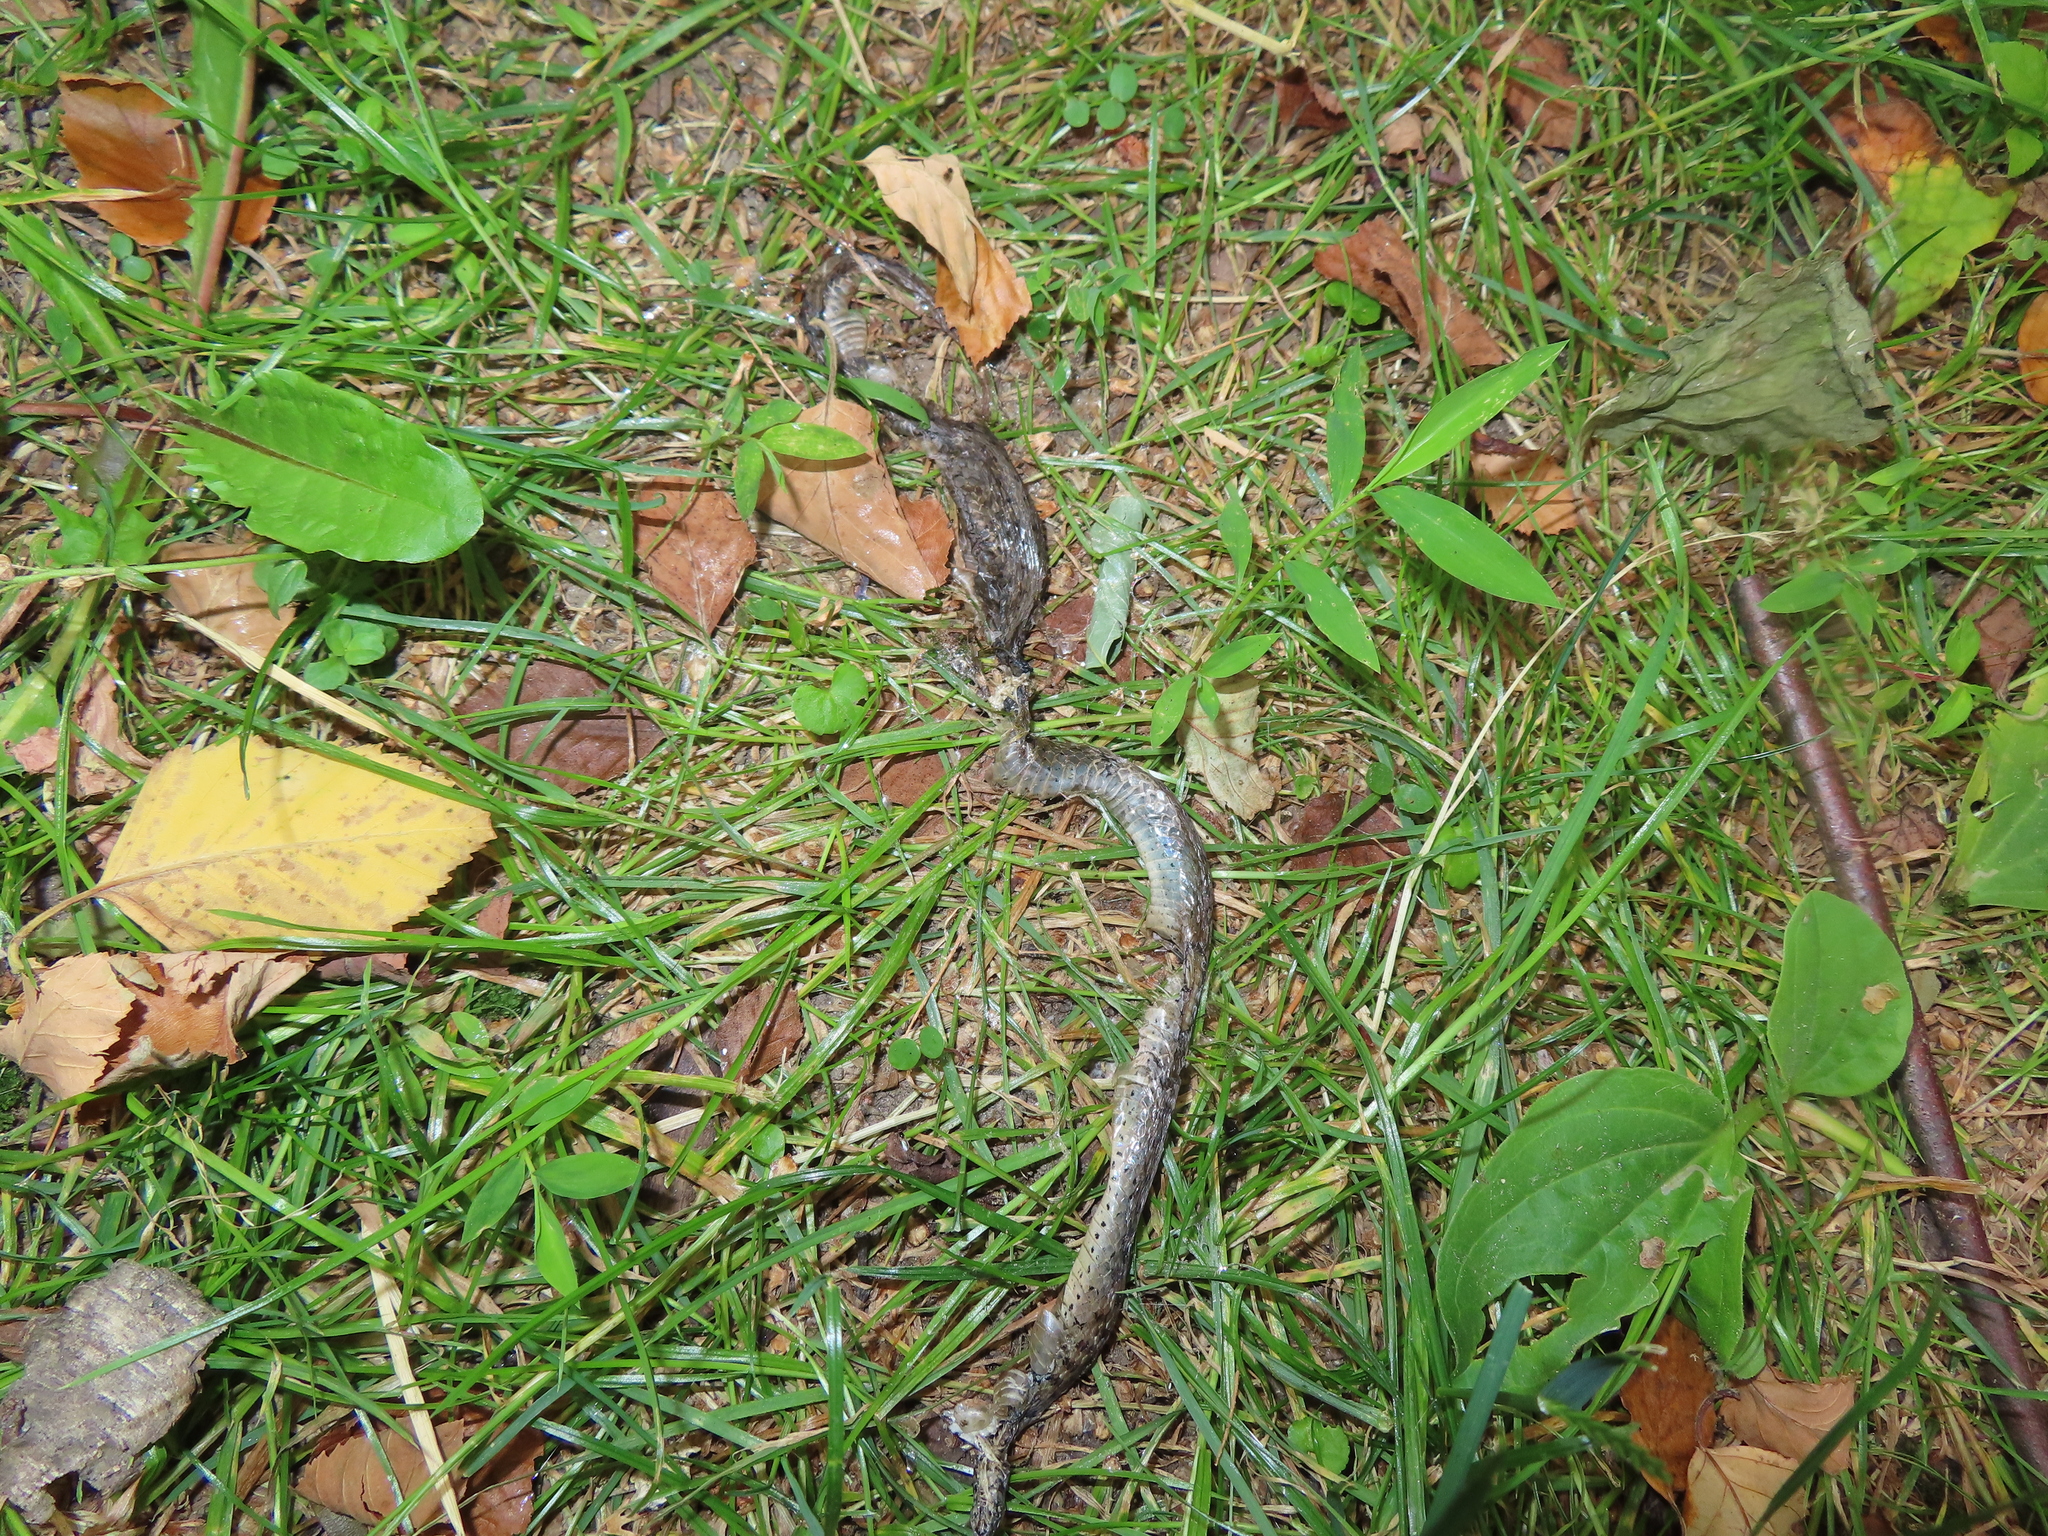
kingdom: Animalia
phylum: Chordata
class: Squamata
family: Colubridae
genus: Thamnophis
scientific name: Thamnophis sirtalis
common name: Common garter snake
